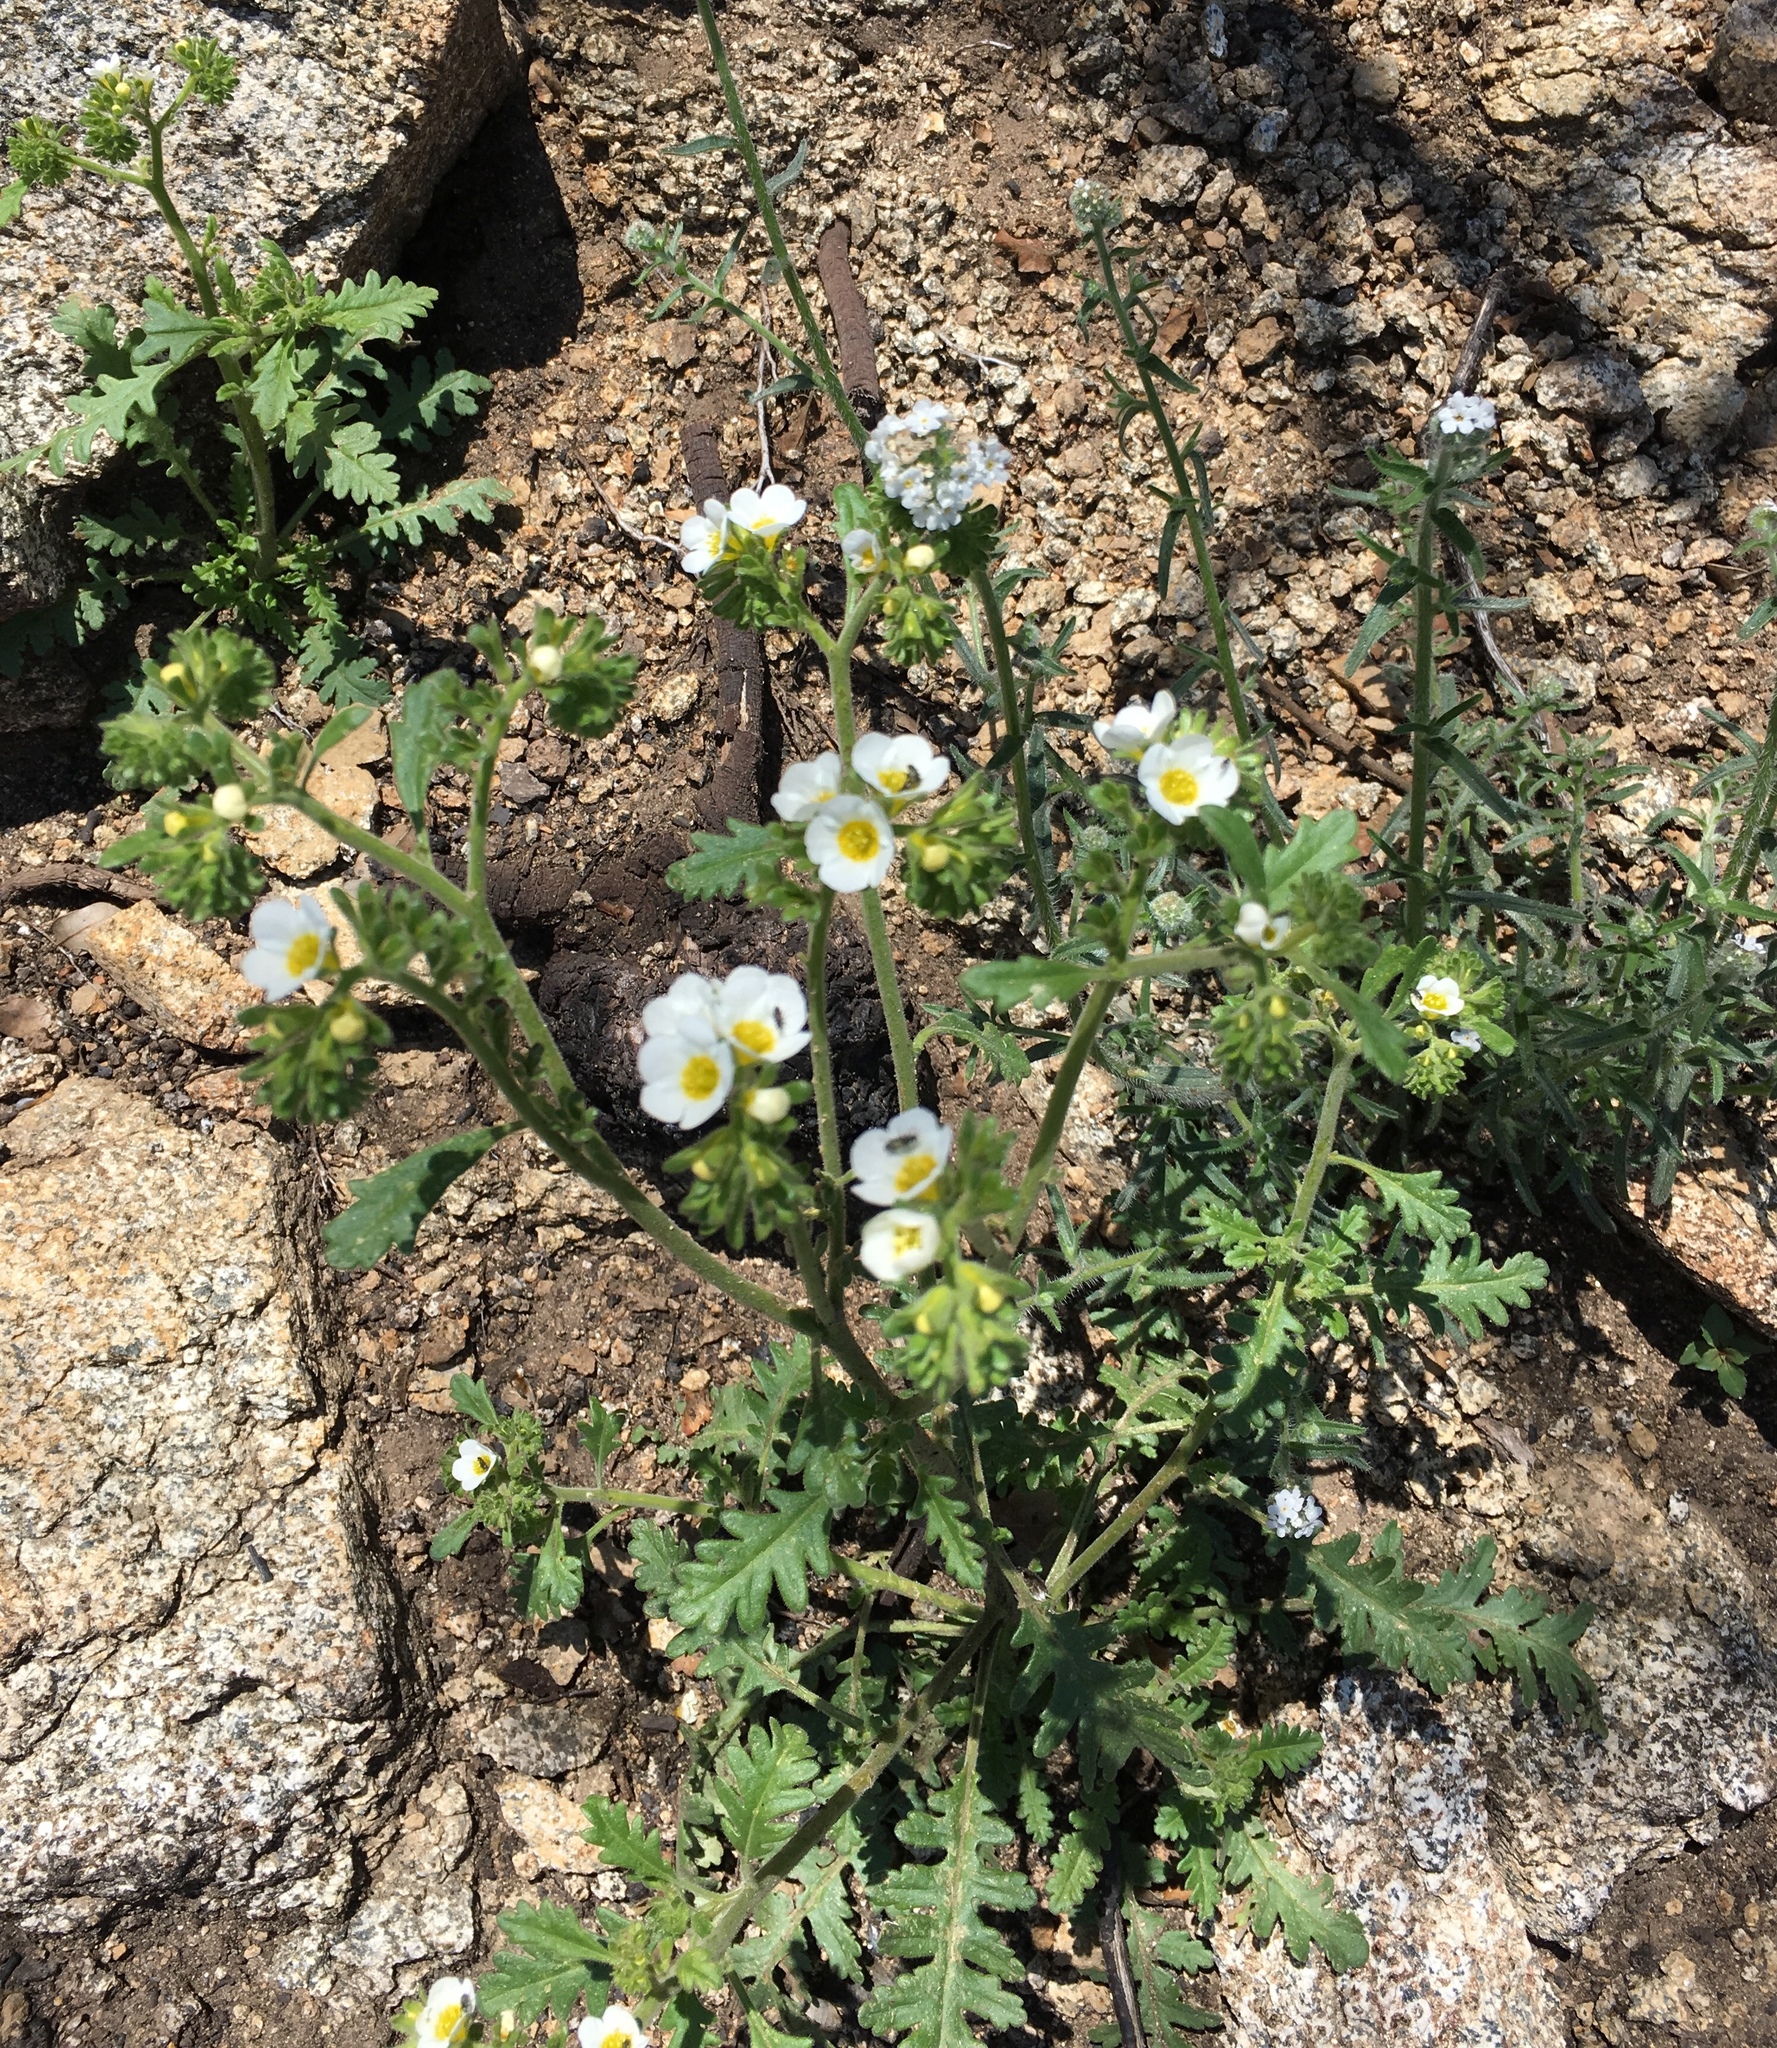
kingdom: Plantae
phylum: Tracheophyta
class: Magnoliopsida
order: Boraginales
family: Hydrophyllaceae
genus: Phacelia
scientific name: Phacelia brachyloba
